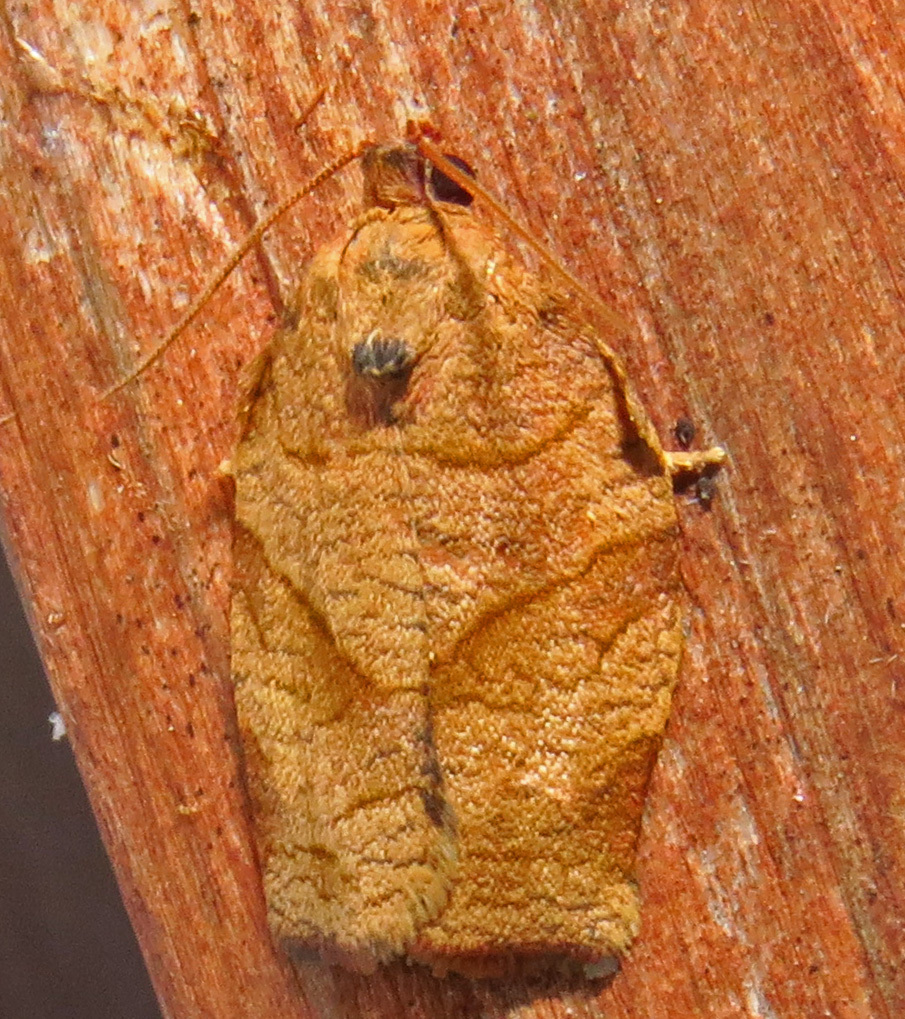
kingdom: Animalia
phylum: Arthropoda
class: Insecta
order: Lepidoptera
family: Tortricidae
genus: Choristoneura
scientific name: Choristoneura rosaceana
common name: Oblique-banded leafroller moth
